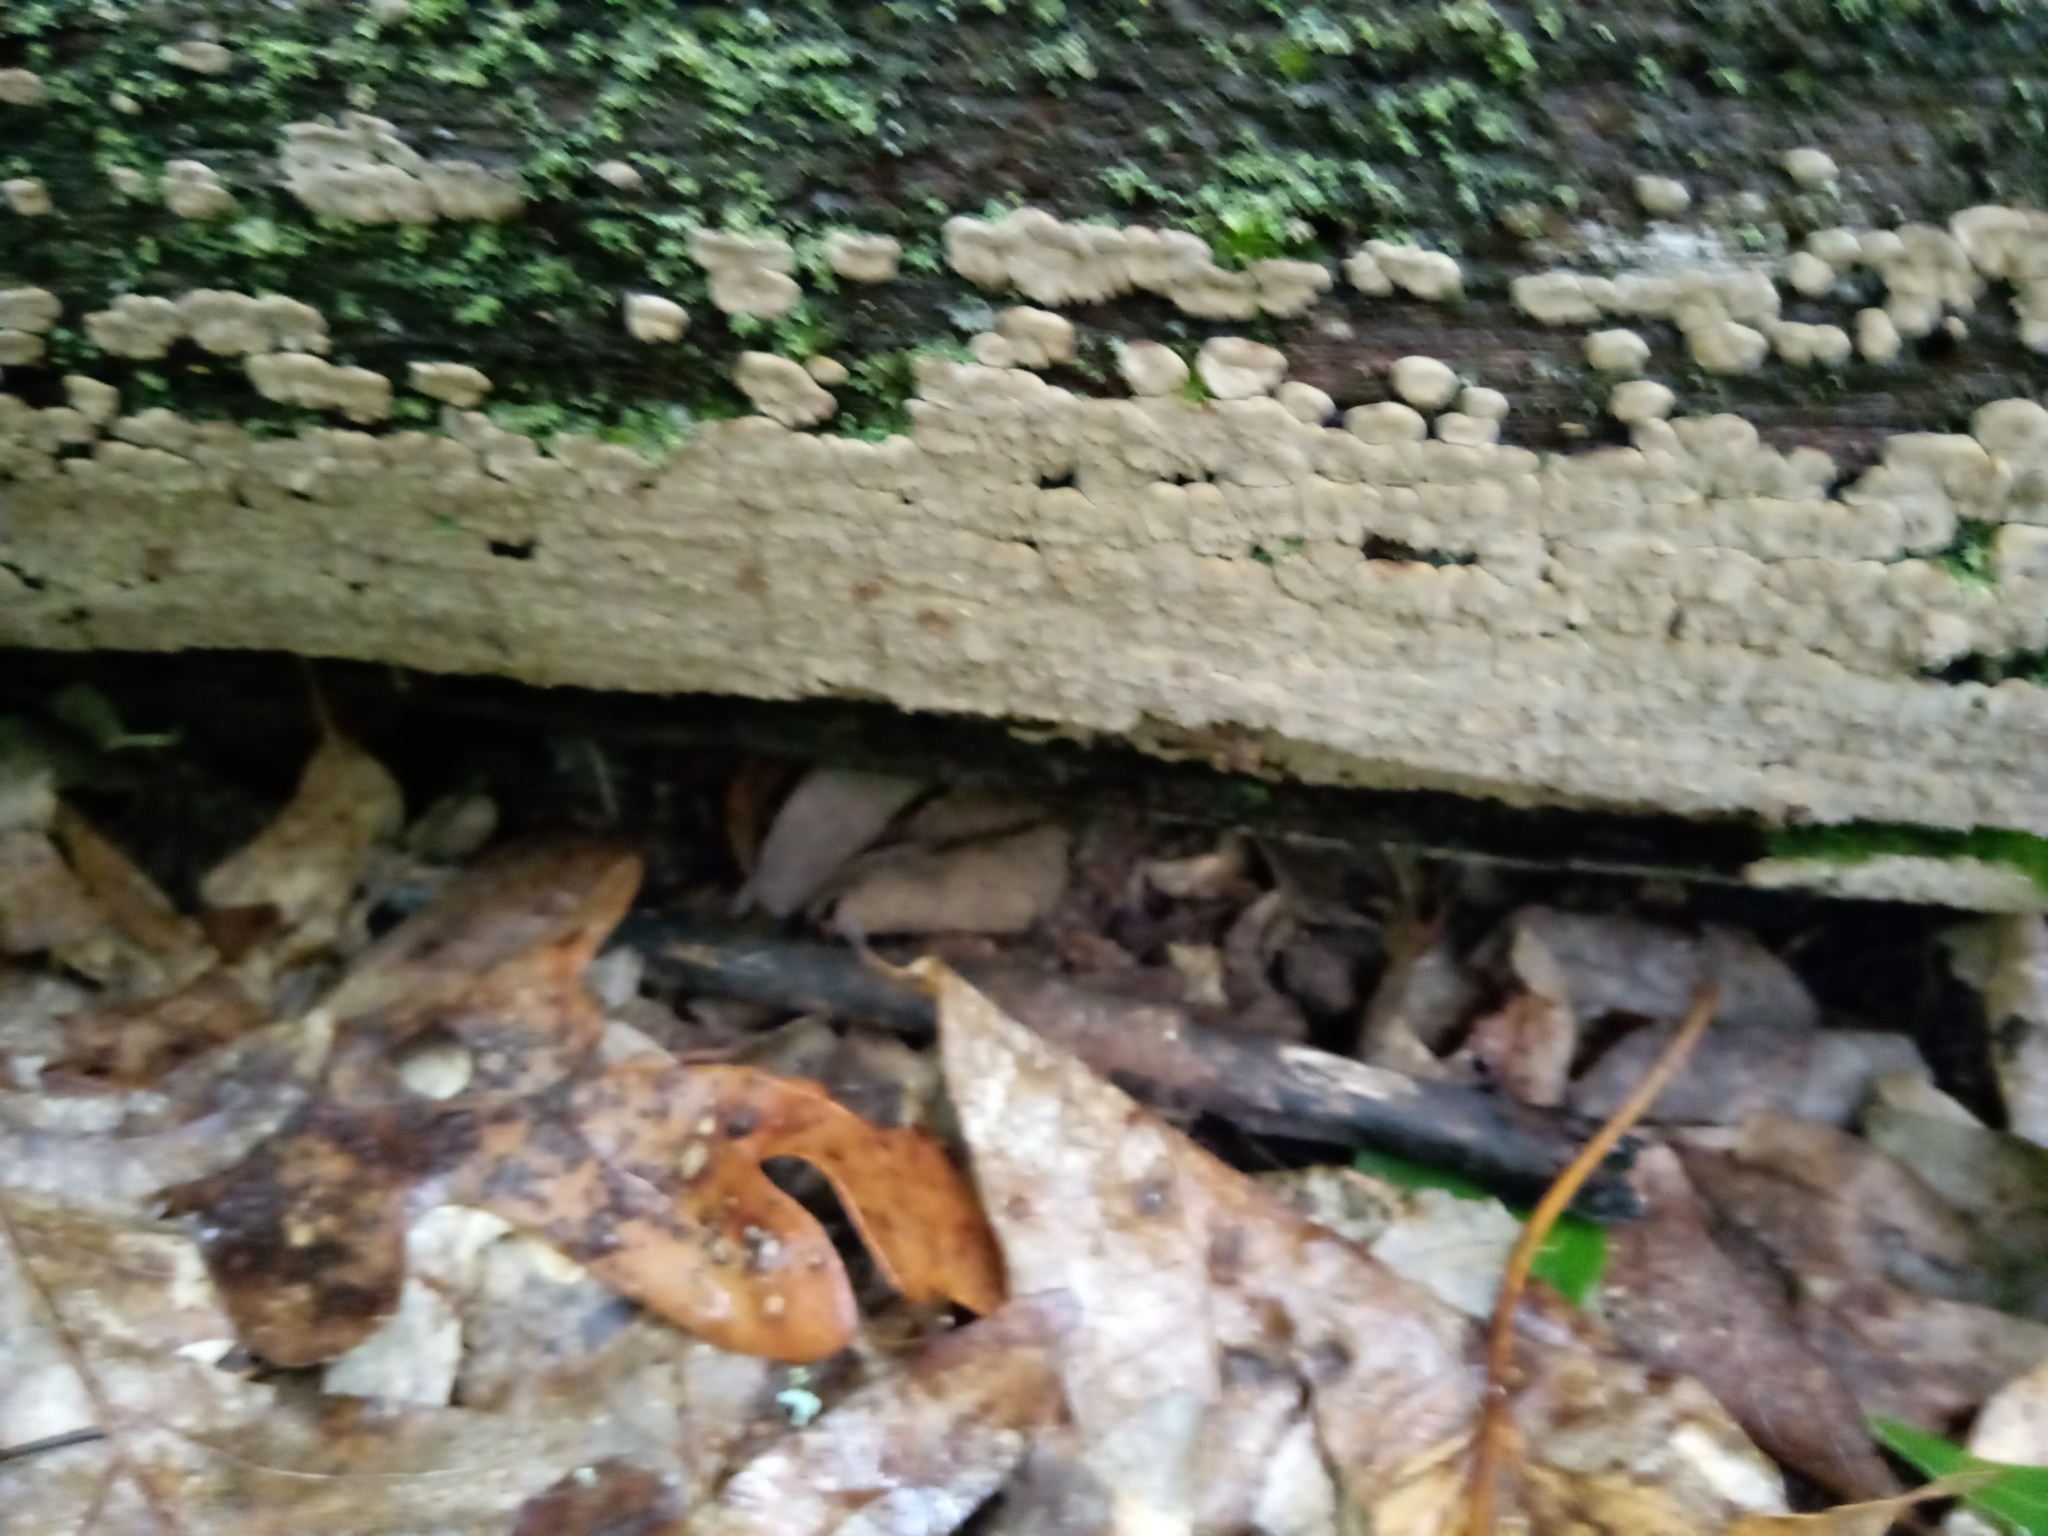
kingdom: Fungi
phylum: Basidiomycota
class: Agaricomycetes
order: Russulales
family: Stereaceae
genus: Xylobolus
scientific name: Xylobolus frustulatus
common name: Ceramic parchment
